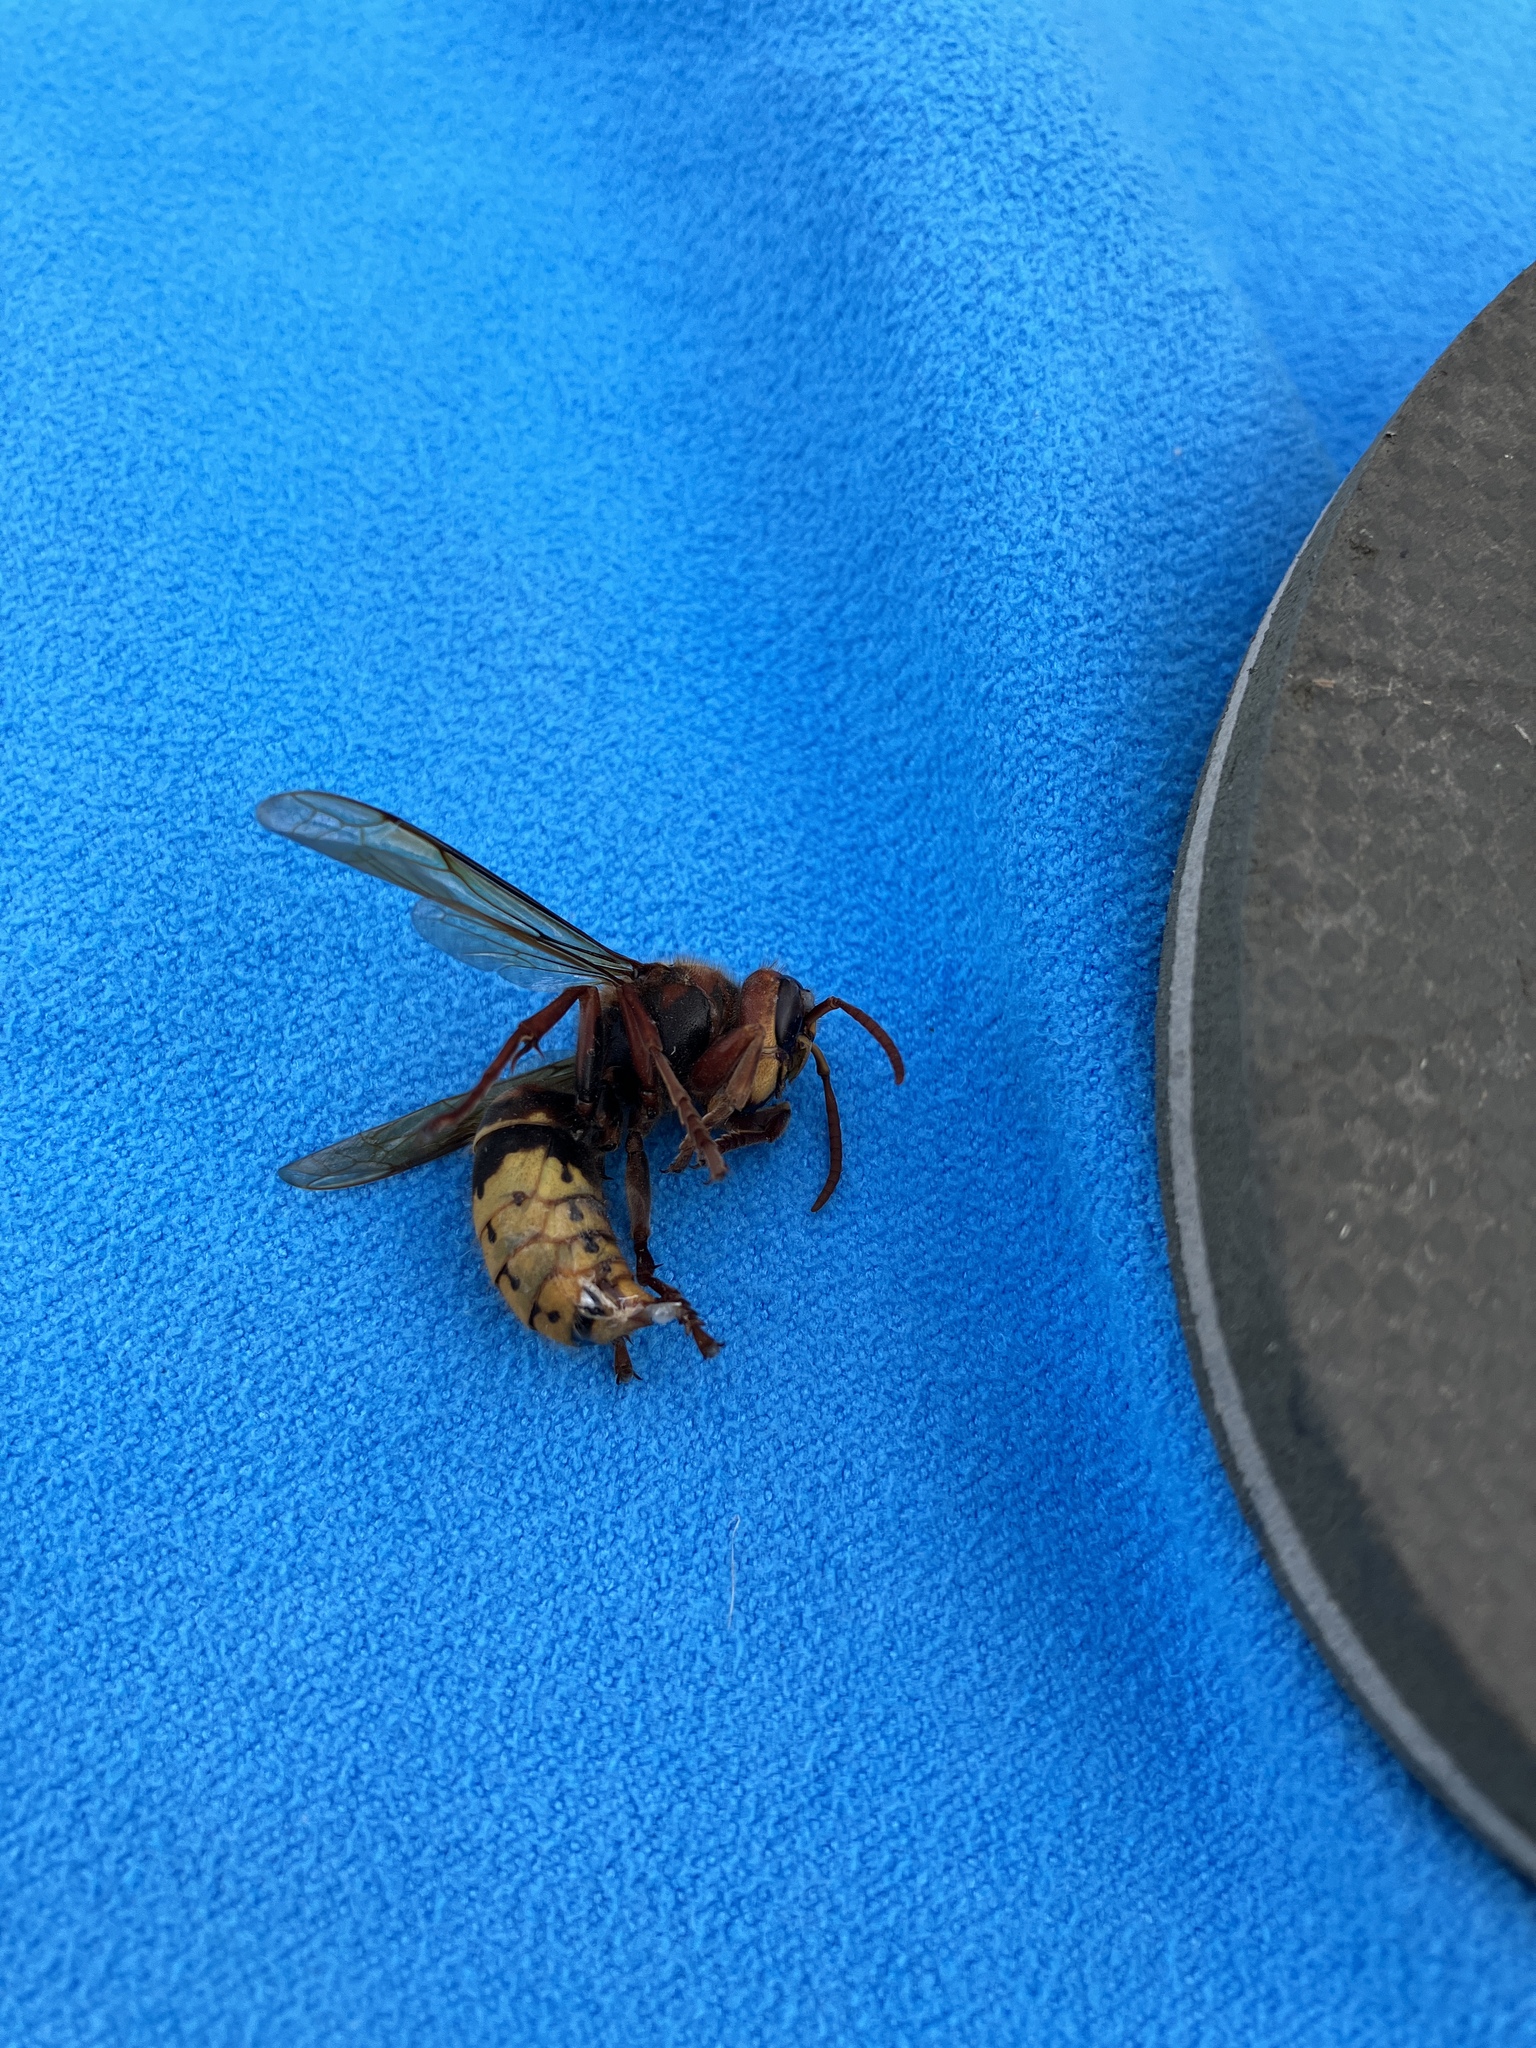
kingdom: Animalia
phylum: Arthropoda
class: Insecta
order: Hymenoptera
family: Vespidae
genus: Vespa
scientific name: Vespa crabro
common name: Hornet
